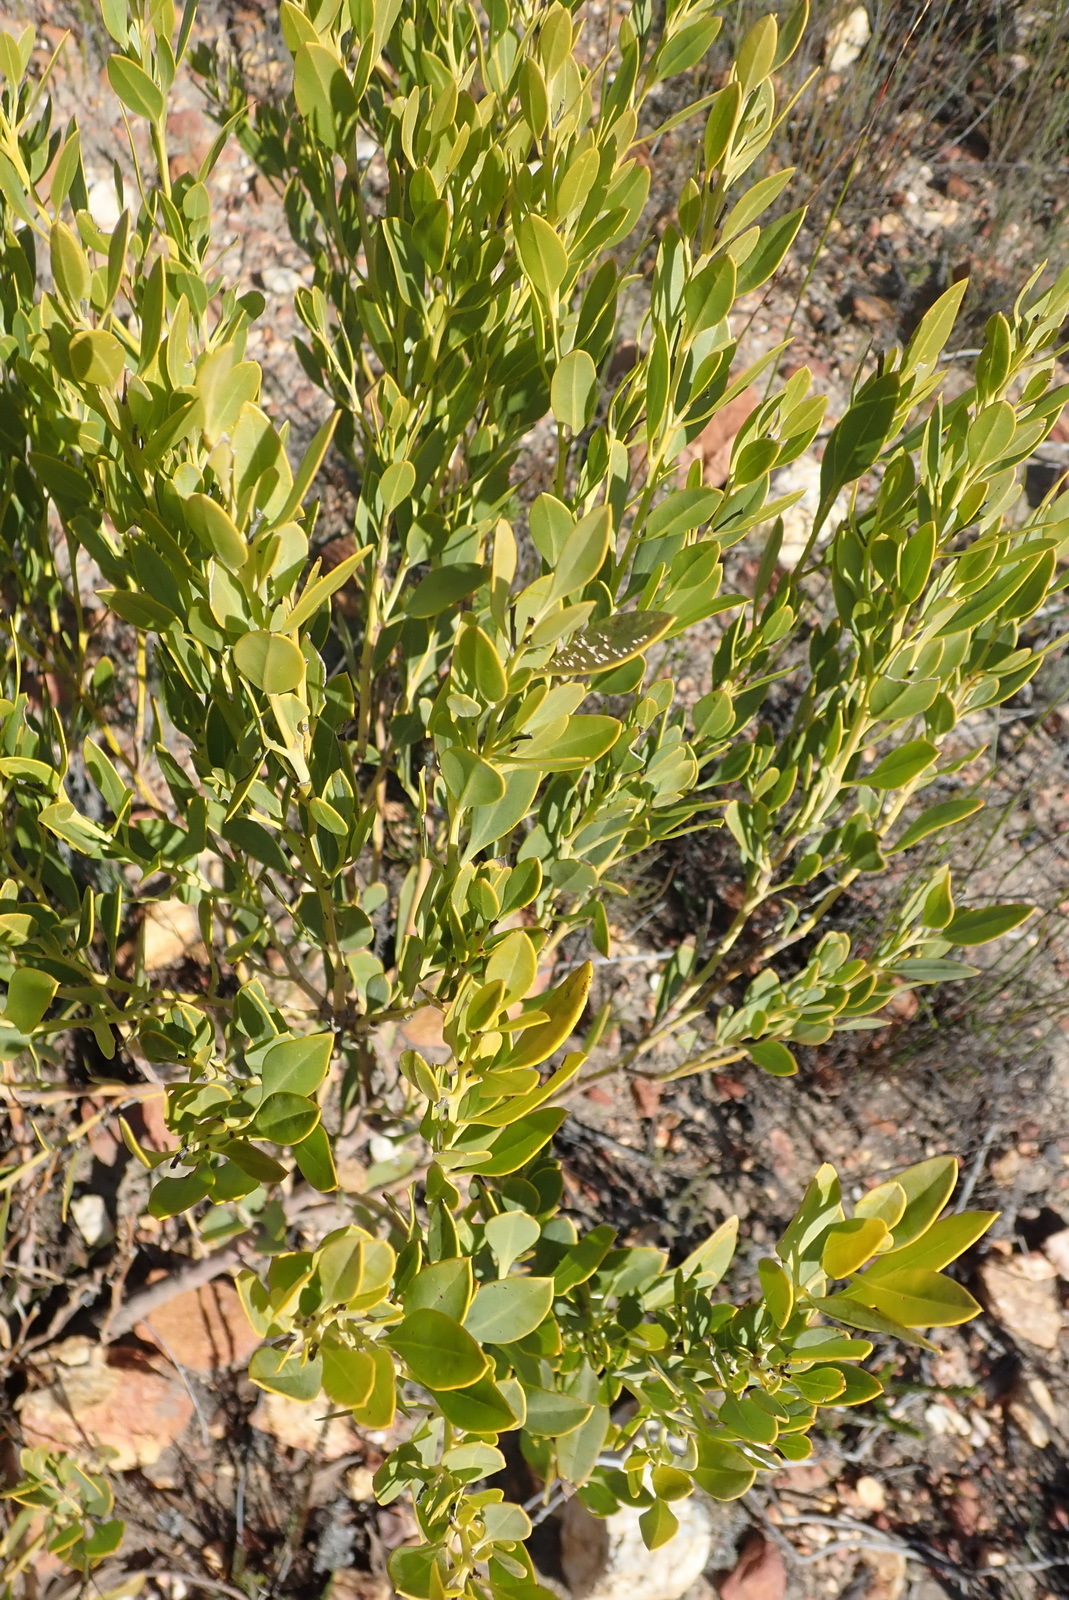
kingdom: Plantae
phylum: Tracheophyta
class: Magnoliopsida
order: Fabales
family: Fabaceae
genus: Rafnia
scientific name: Rafnia vlokii
